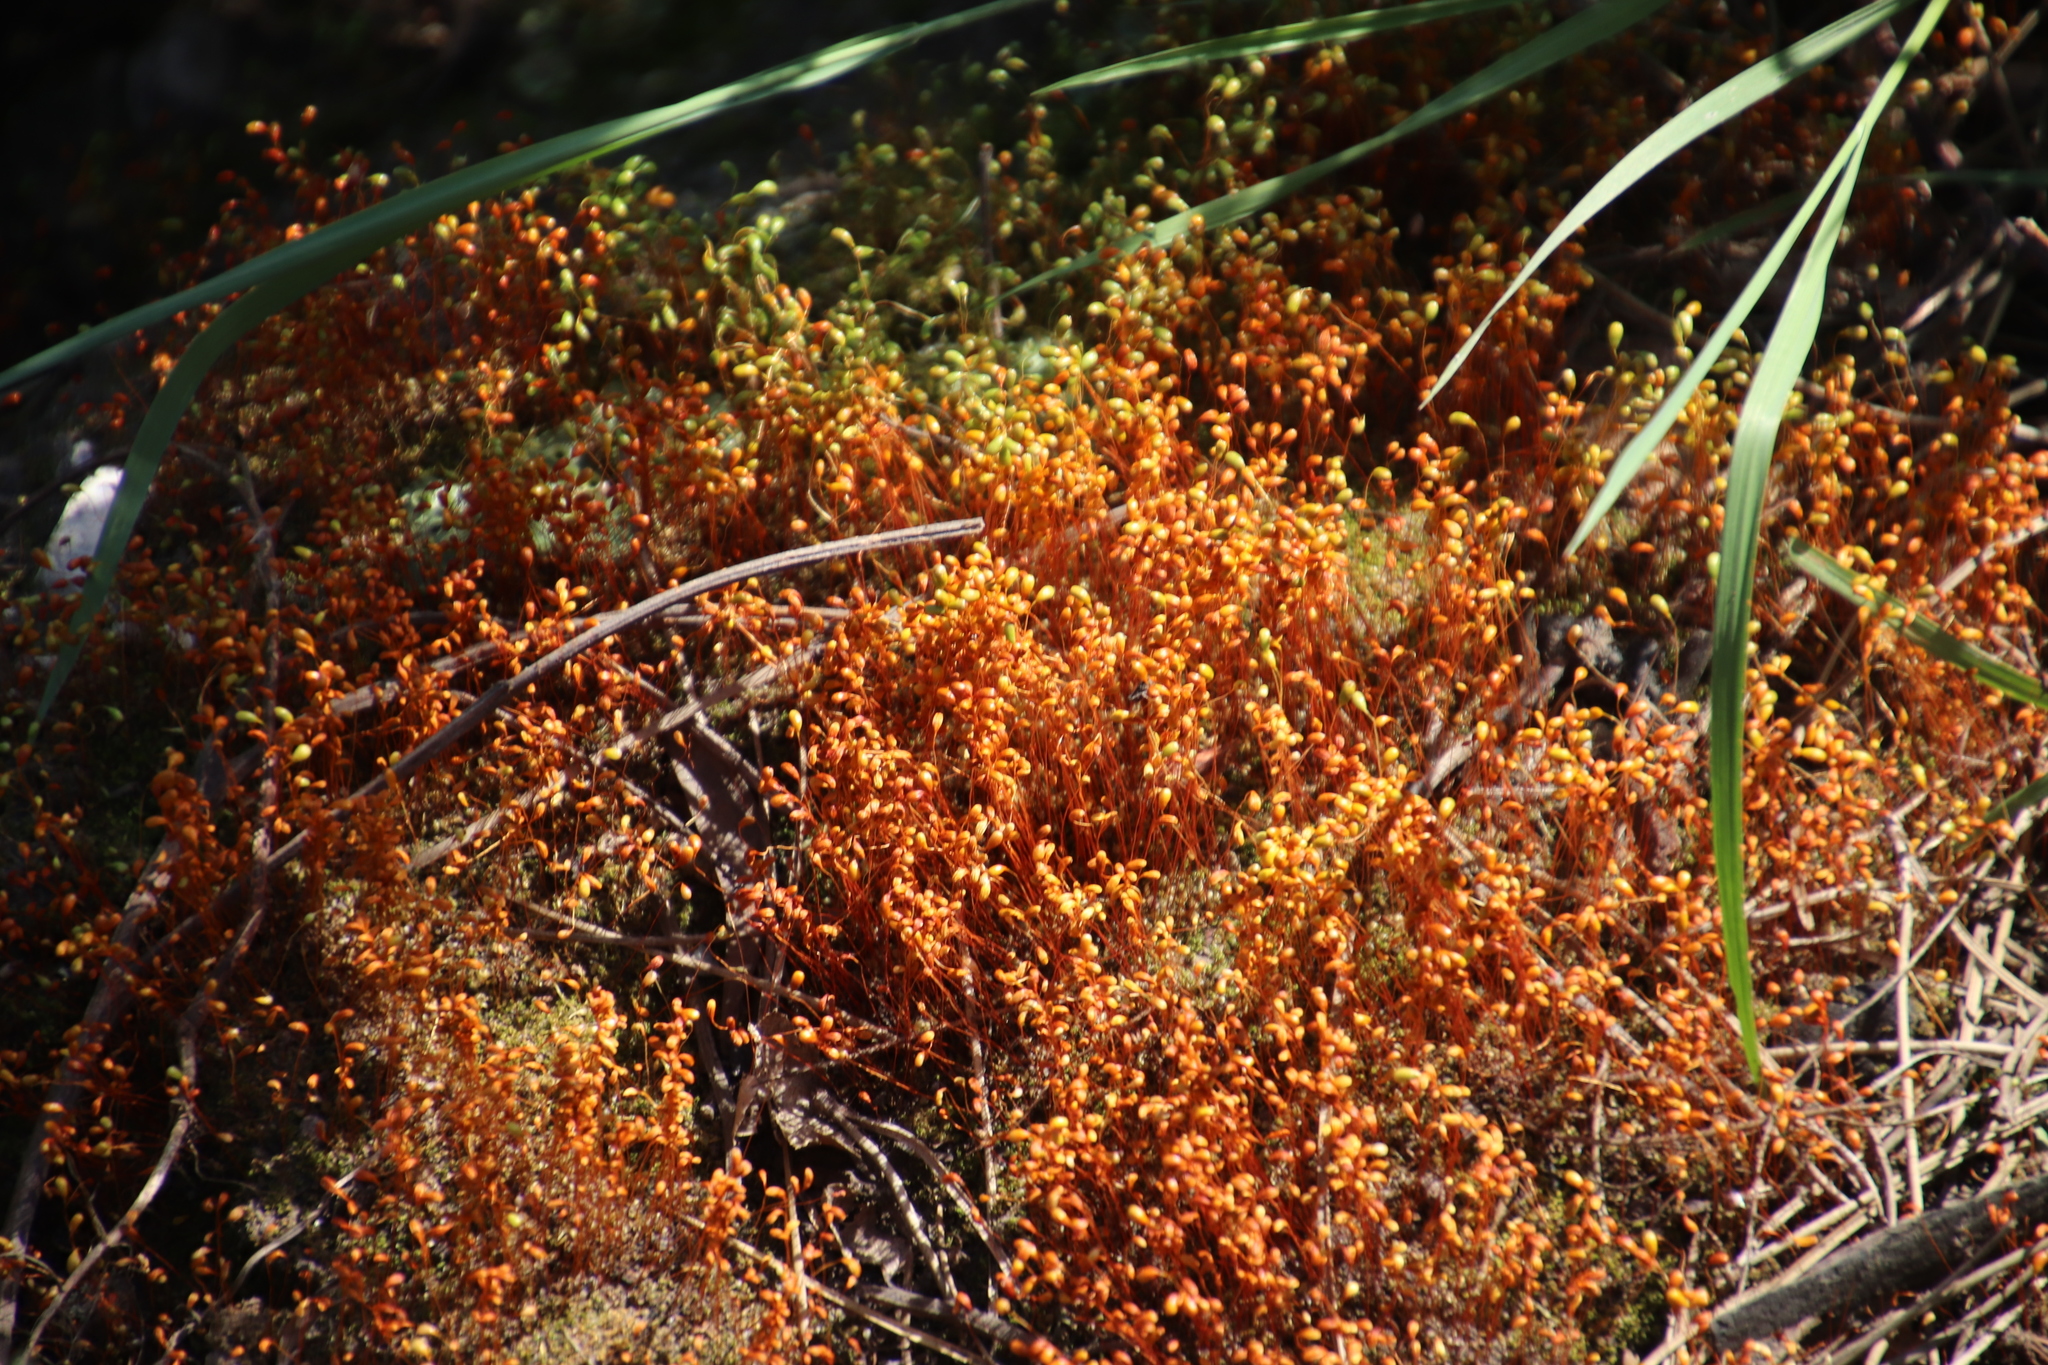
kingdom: Plantae
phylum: Bryophyta
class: Bryopsida
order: Funariales
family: Funariaceae
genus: Funaria
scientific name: Funaria hygrometrica
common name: Common cord moss
